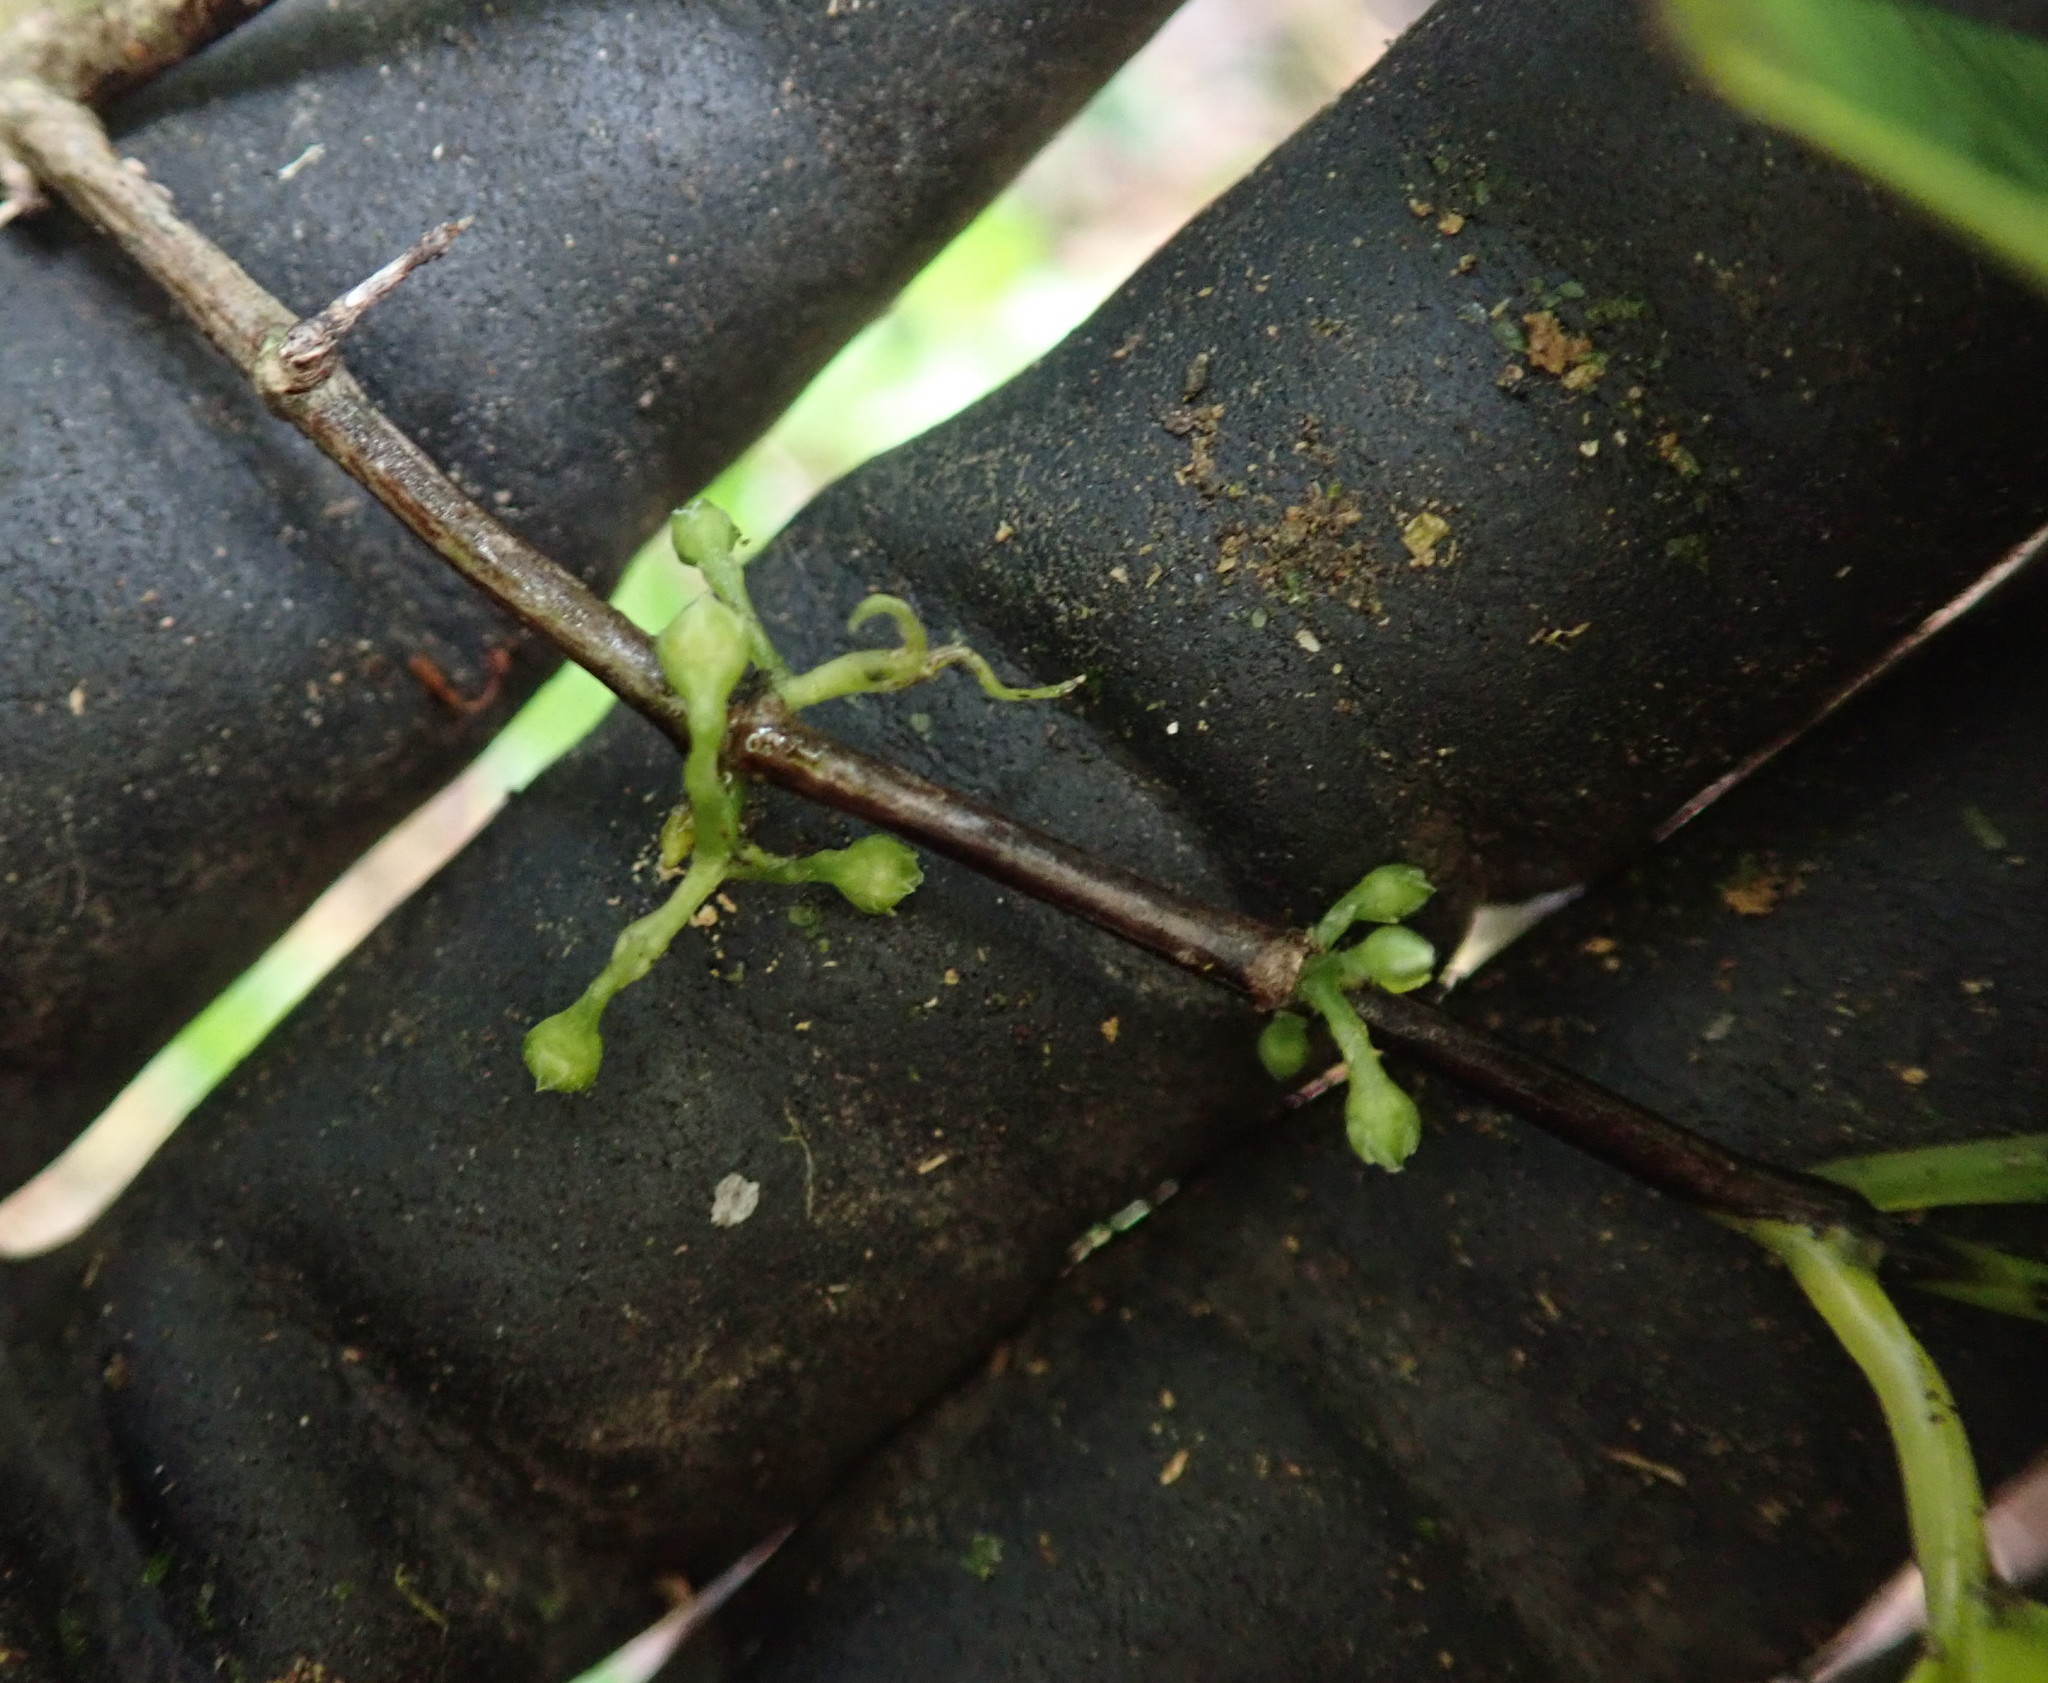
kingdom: Plantae
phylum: Tracheophyta
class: Magnoliopsida
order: Gentianales
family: Loganiaceae
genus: Geniostoma
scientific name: Geniostoma ligustrifolium
